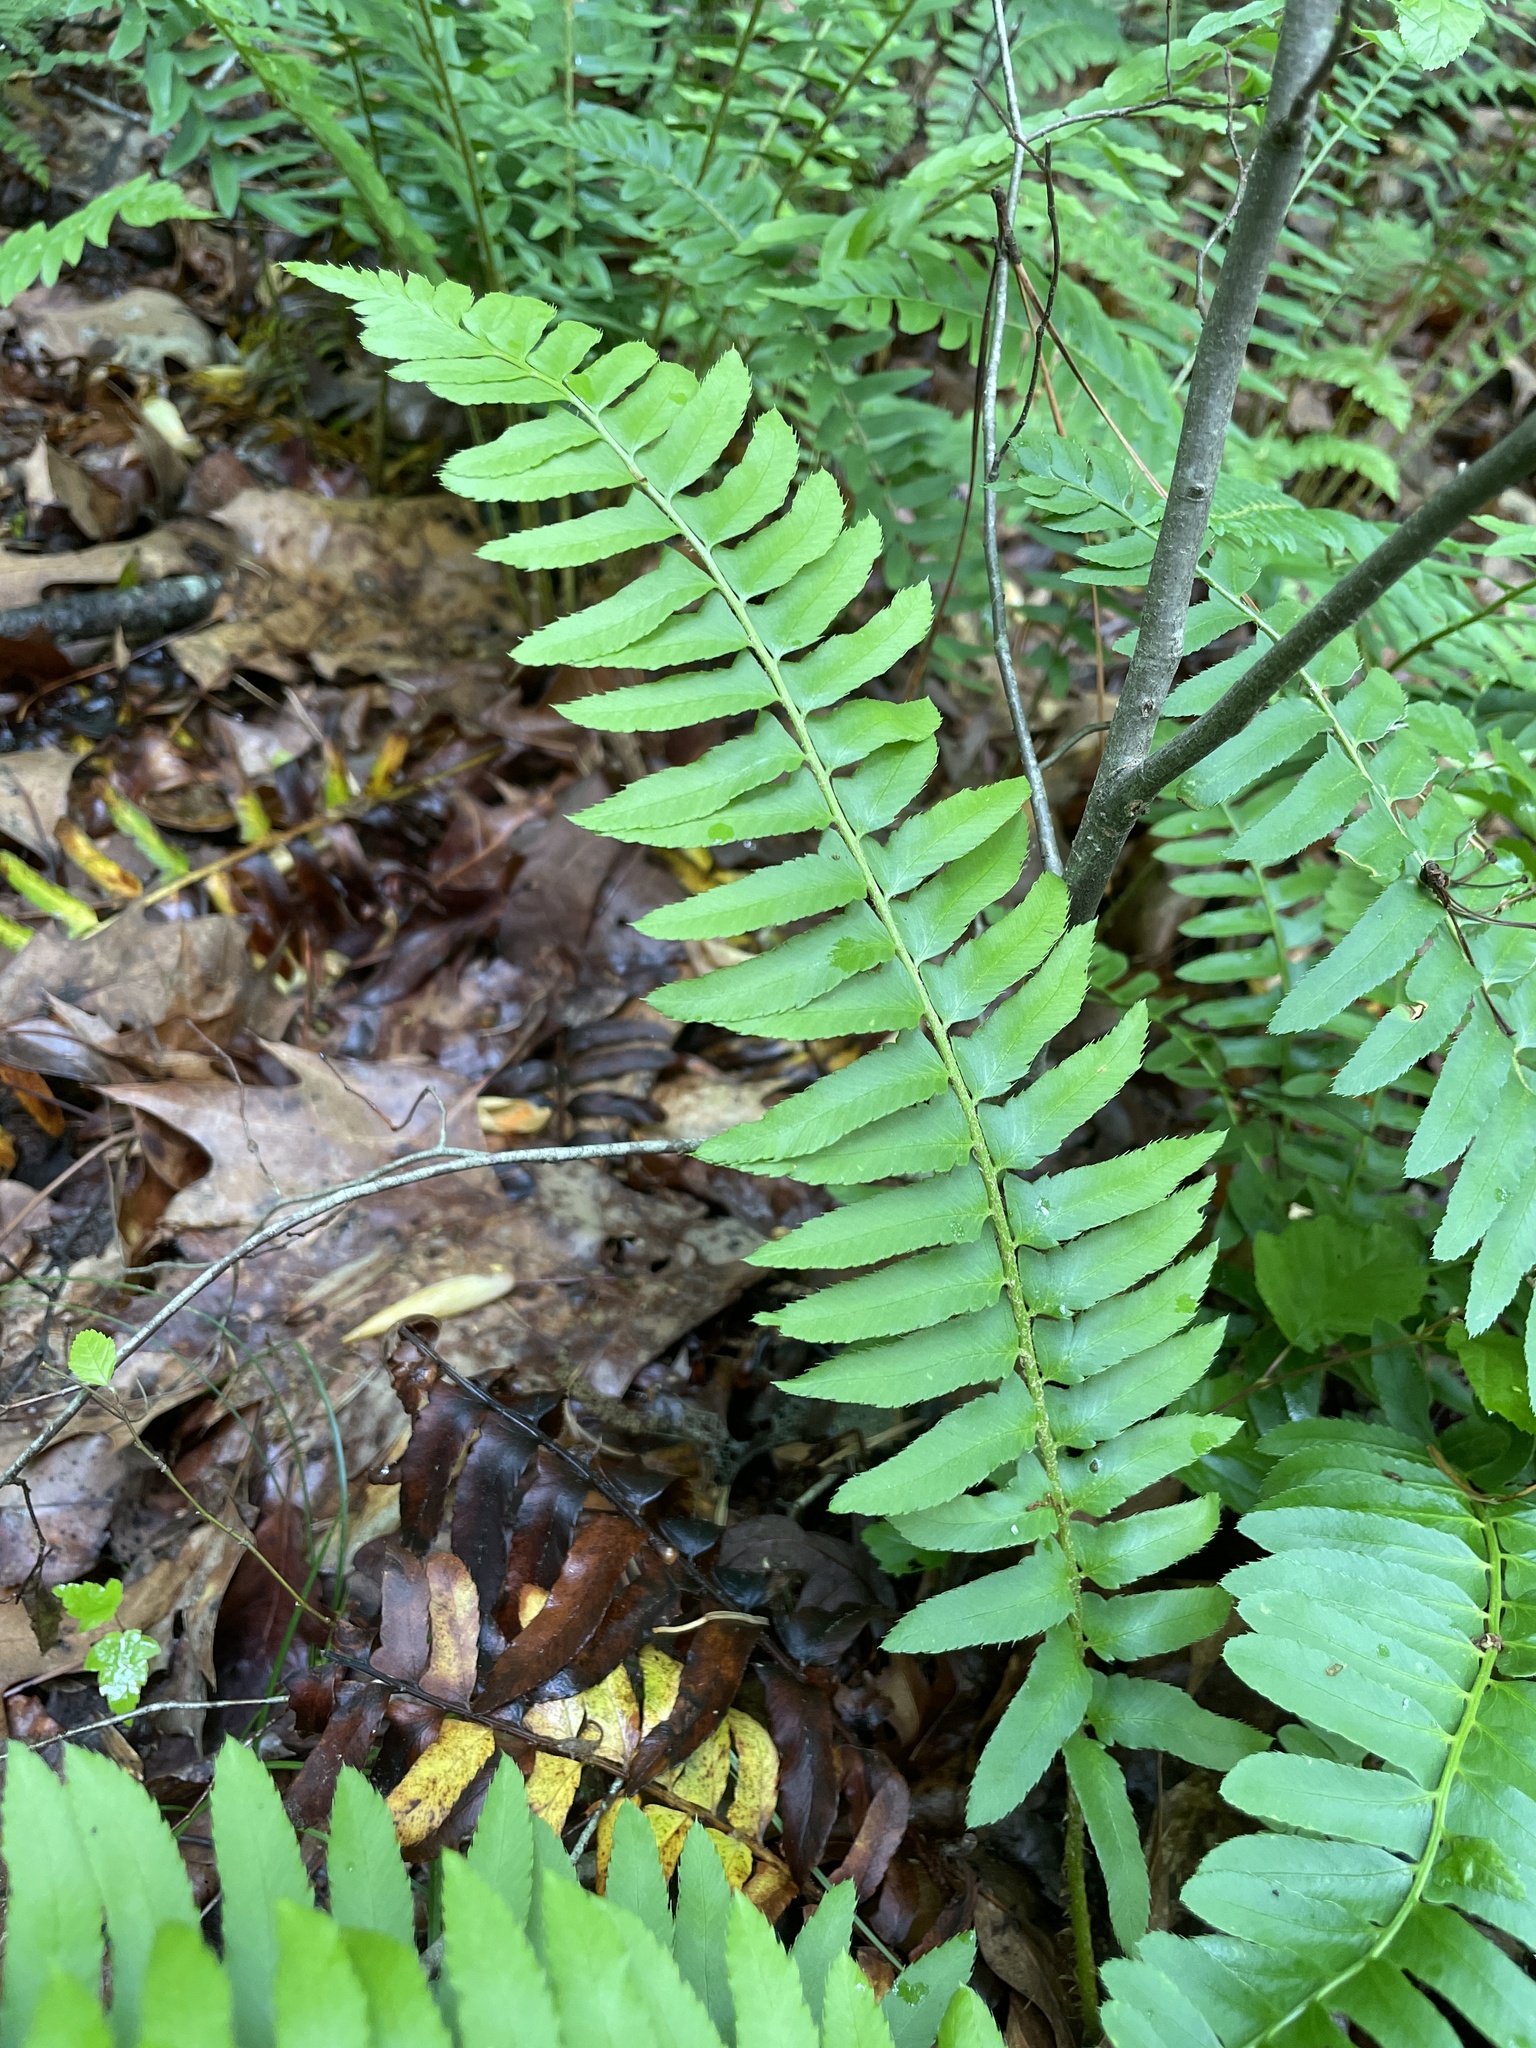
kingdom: Plantae
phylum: Tracheophyta
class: Polypodiopsida
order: Polypodiales
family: Dryopteridaceae
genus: Polystichum
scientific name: Polystichum acrostichoides
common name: Christmas fern
